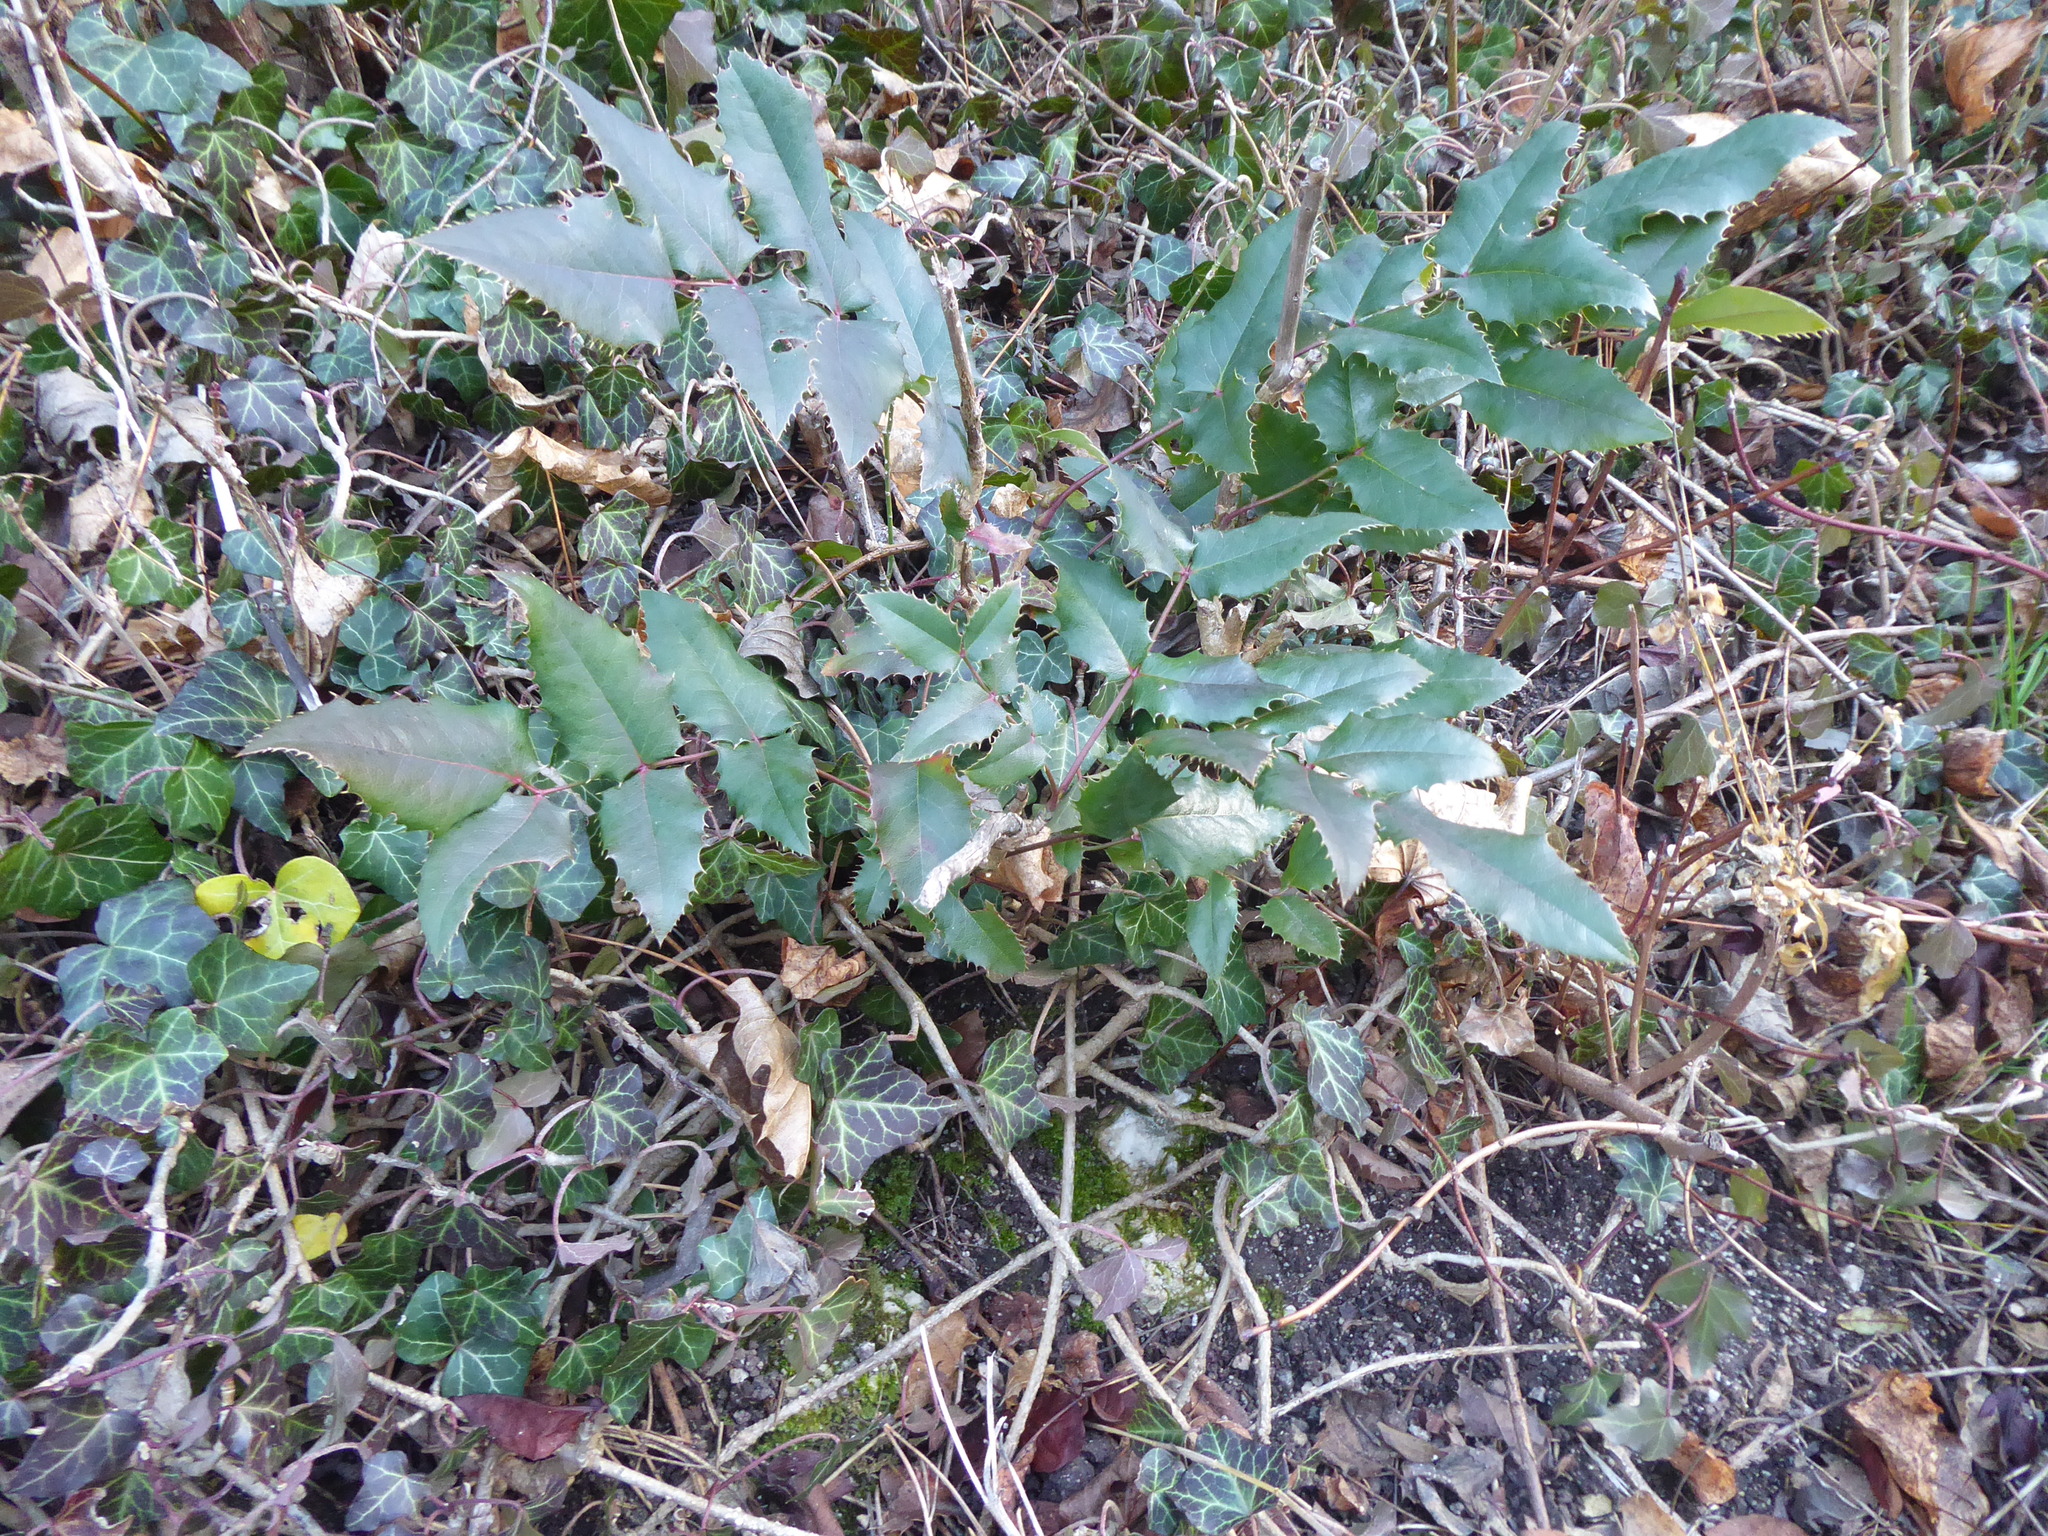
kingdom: Plantae
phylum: Tracheophyta
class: Magnoliopsida
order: Ranunculales
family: Berberidaceae
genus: Mahonia
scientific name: Mahonia aquifolium
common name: Oregon-grape
